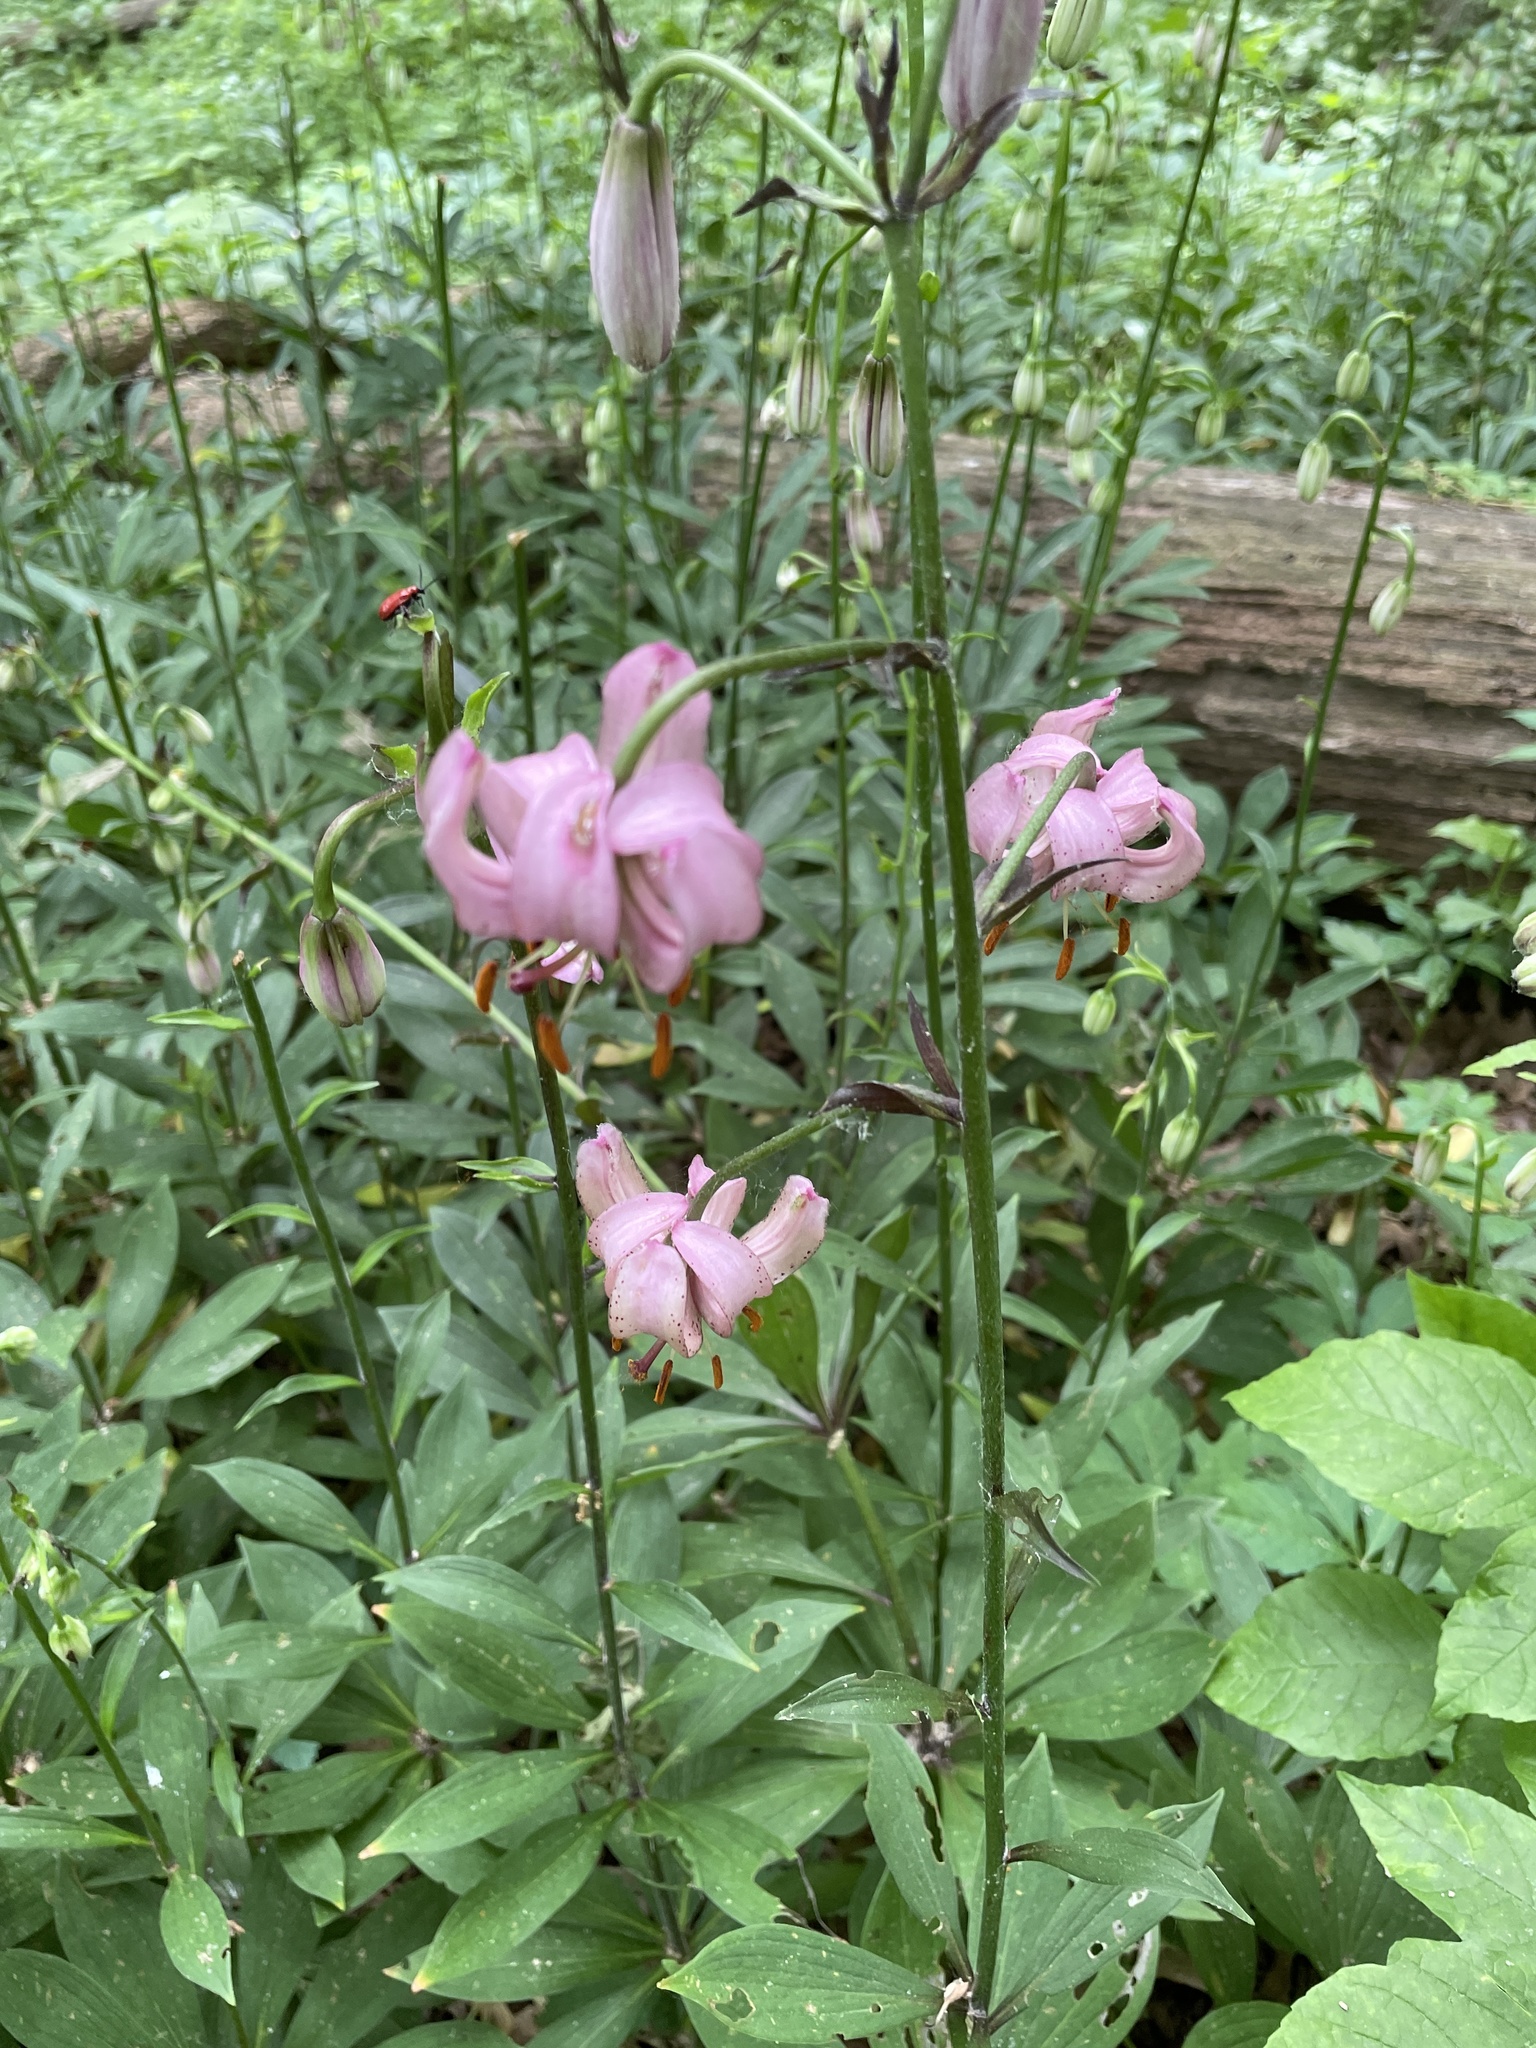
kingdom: Plantae
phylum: Tracheophyta
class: Liliopsida
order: Liliales
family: Liliaceae
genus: Lilium
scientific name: Lilium martagon
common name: Martagon lily
